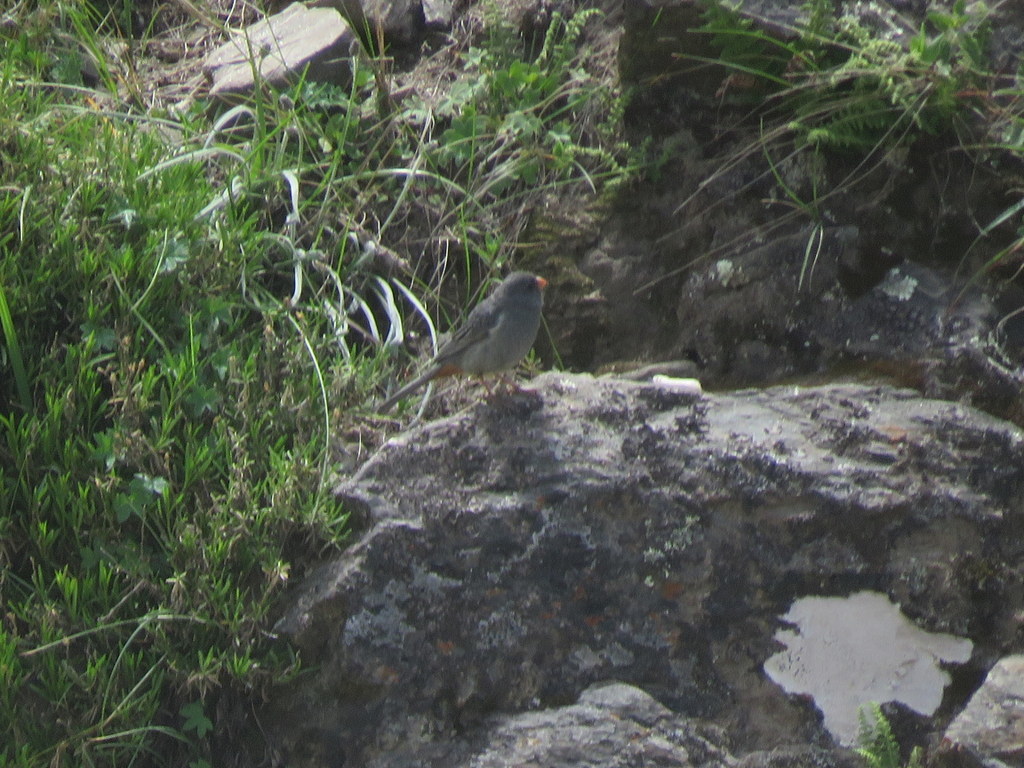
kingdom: Animalia
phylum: Chordata
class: Aves
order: Passeriformes
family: Thraupidae
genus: Catamenia
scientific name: Catamenia inornata
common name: Plain-colored seedeater
